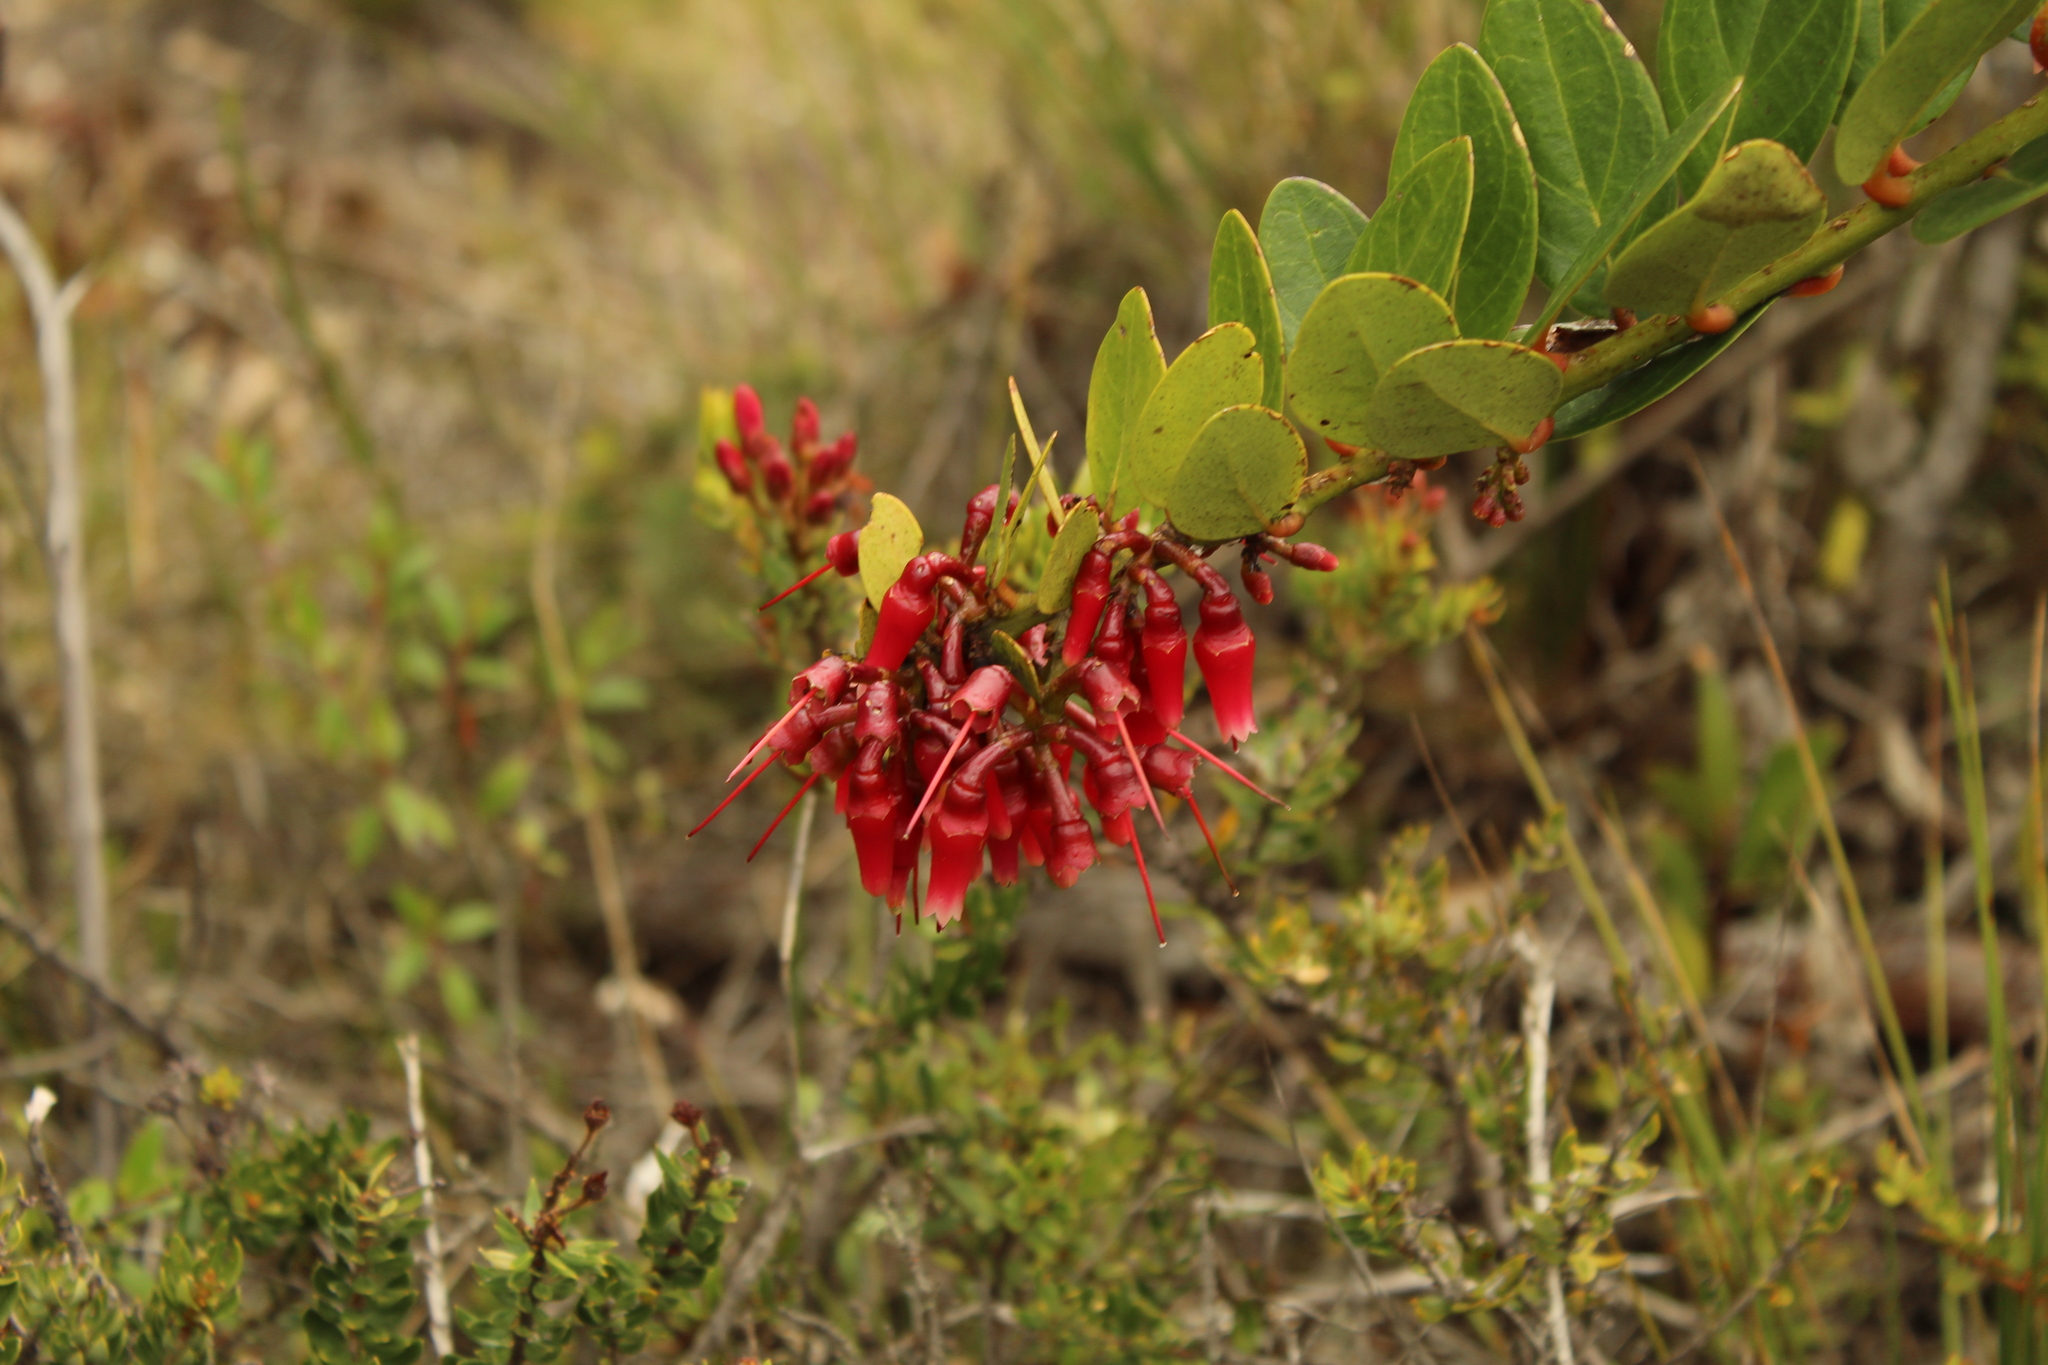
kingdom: Plantae
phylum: Tracheophyta
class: Magnoliopsida
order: Ericales
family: Ericaceae
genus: Macleania
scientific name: Macleania rupestris
